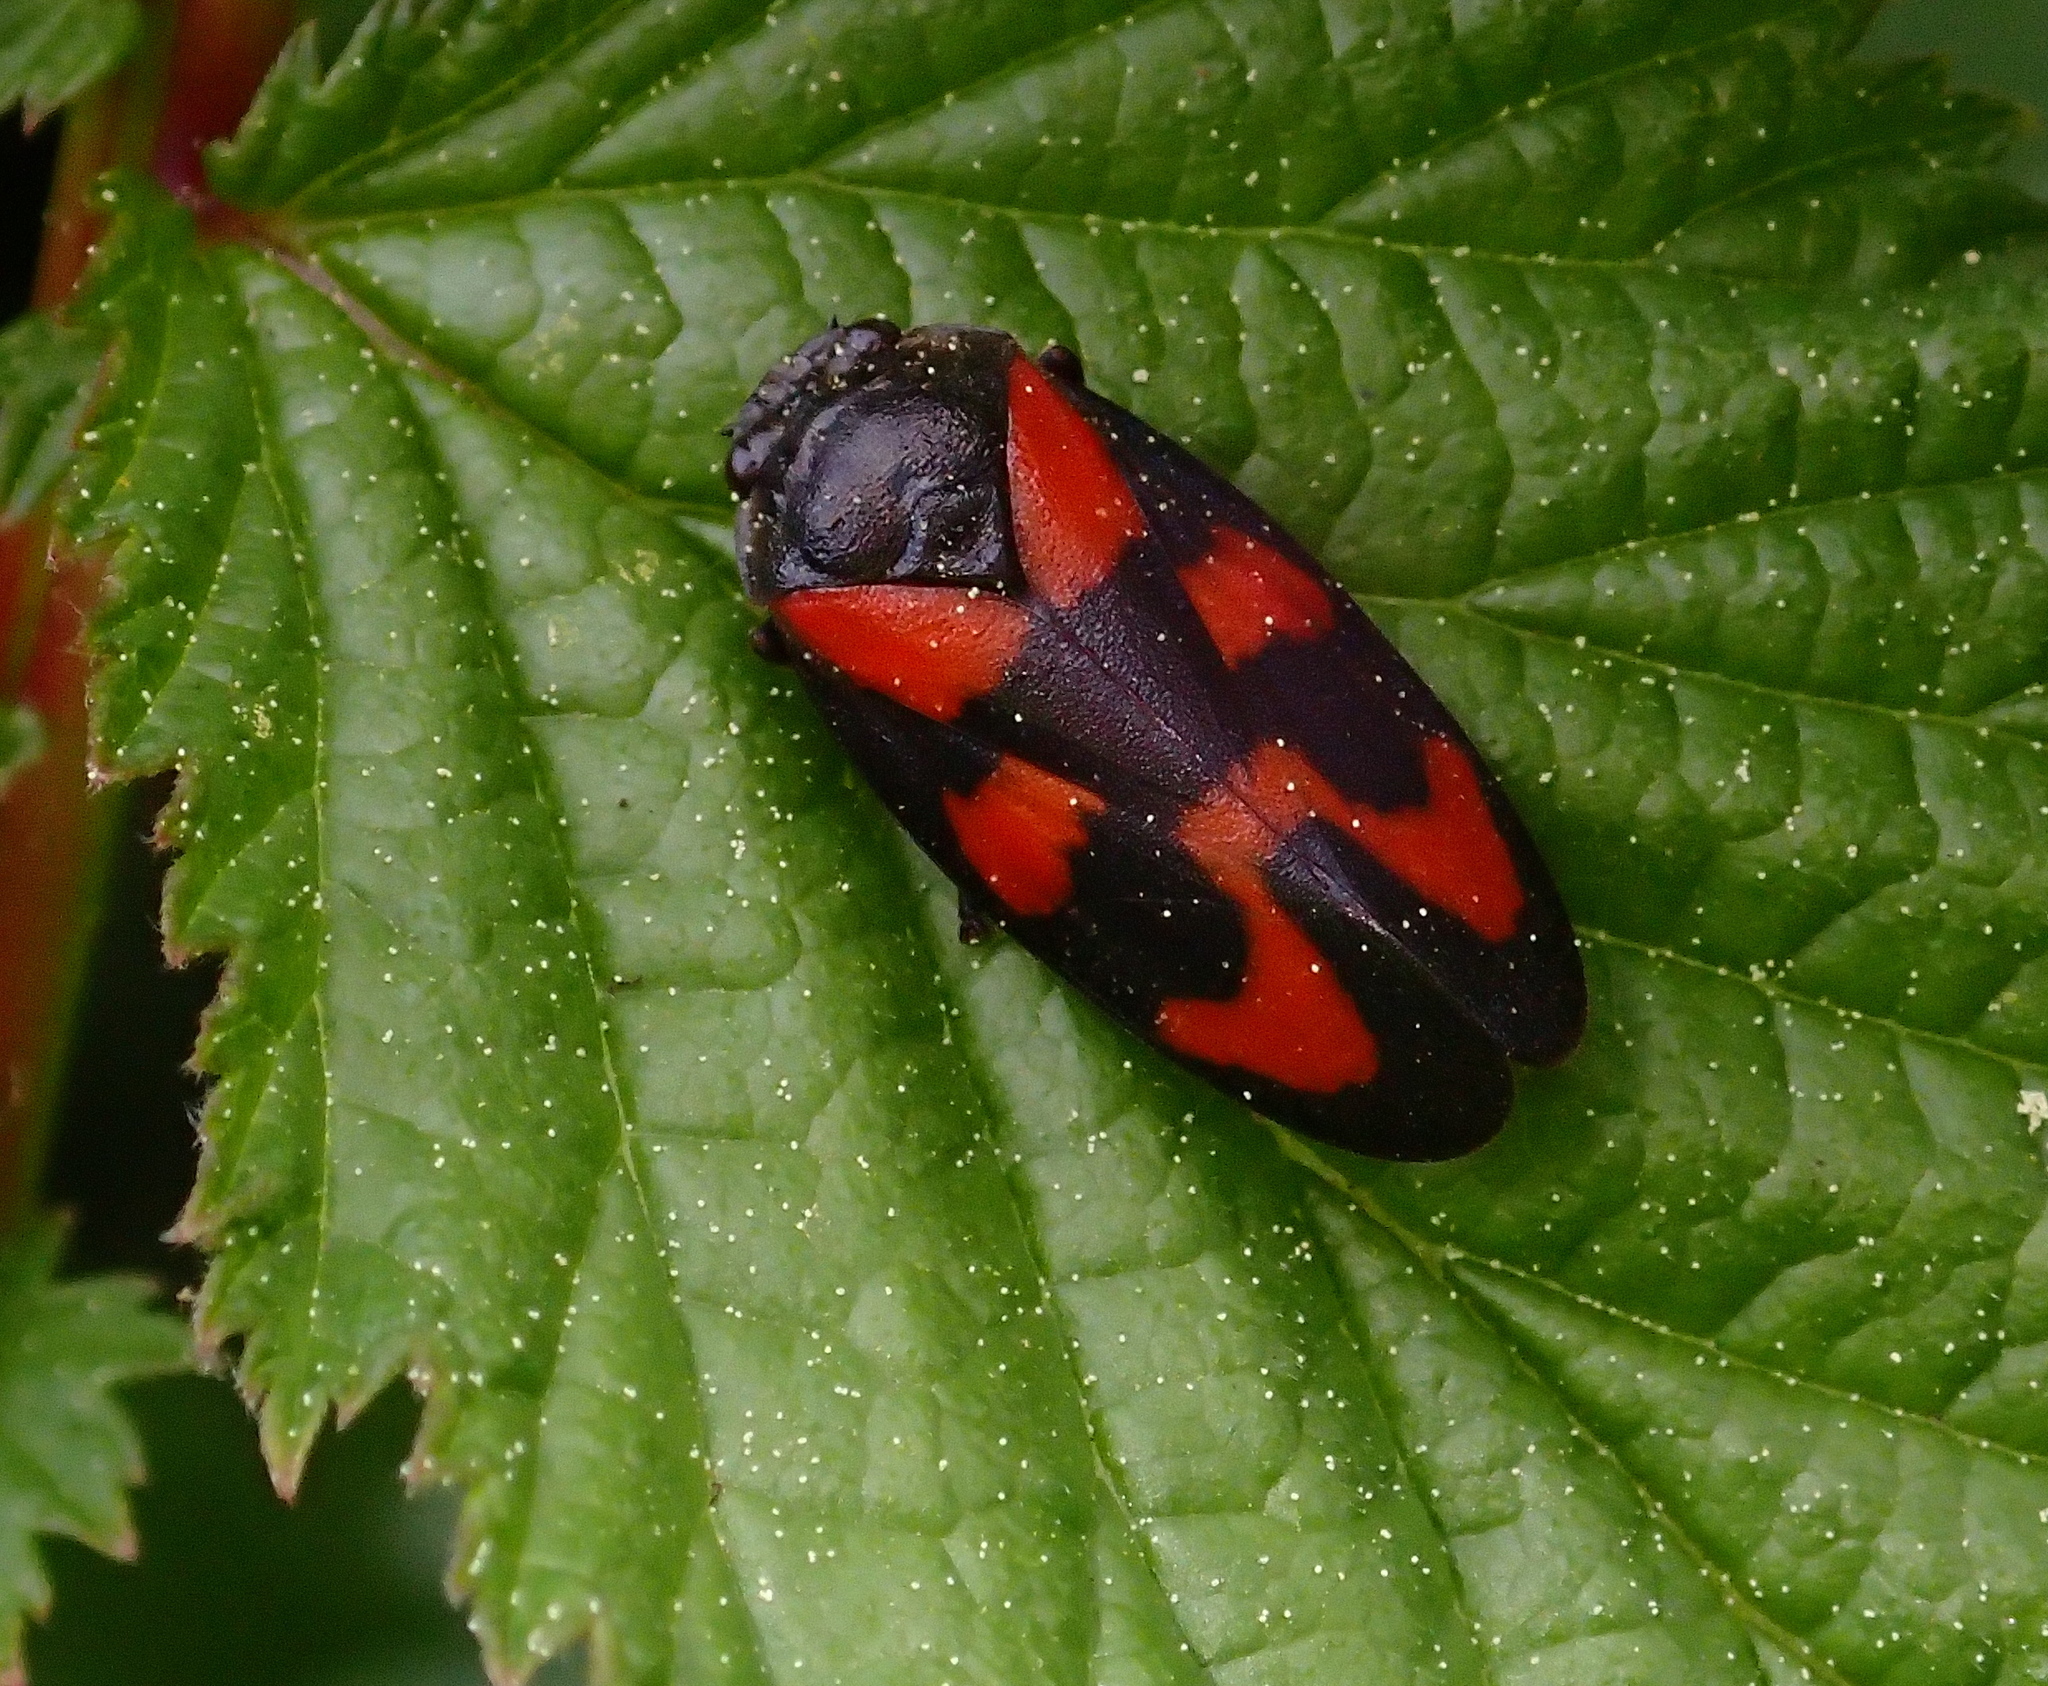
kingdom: Animalia
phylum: Arthropoda
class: Insecta
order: Hemiptera
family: Cercopidae
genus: Cercopis
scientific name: Cercopis vulnerata
